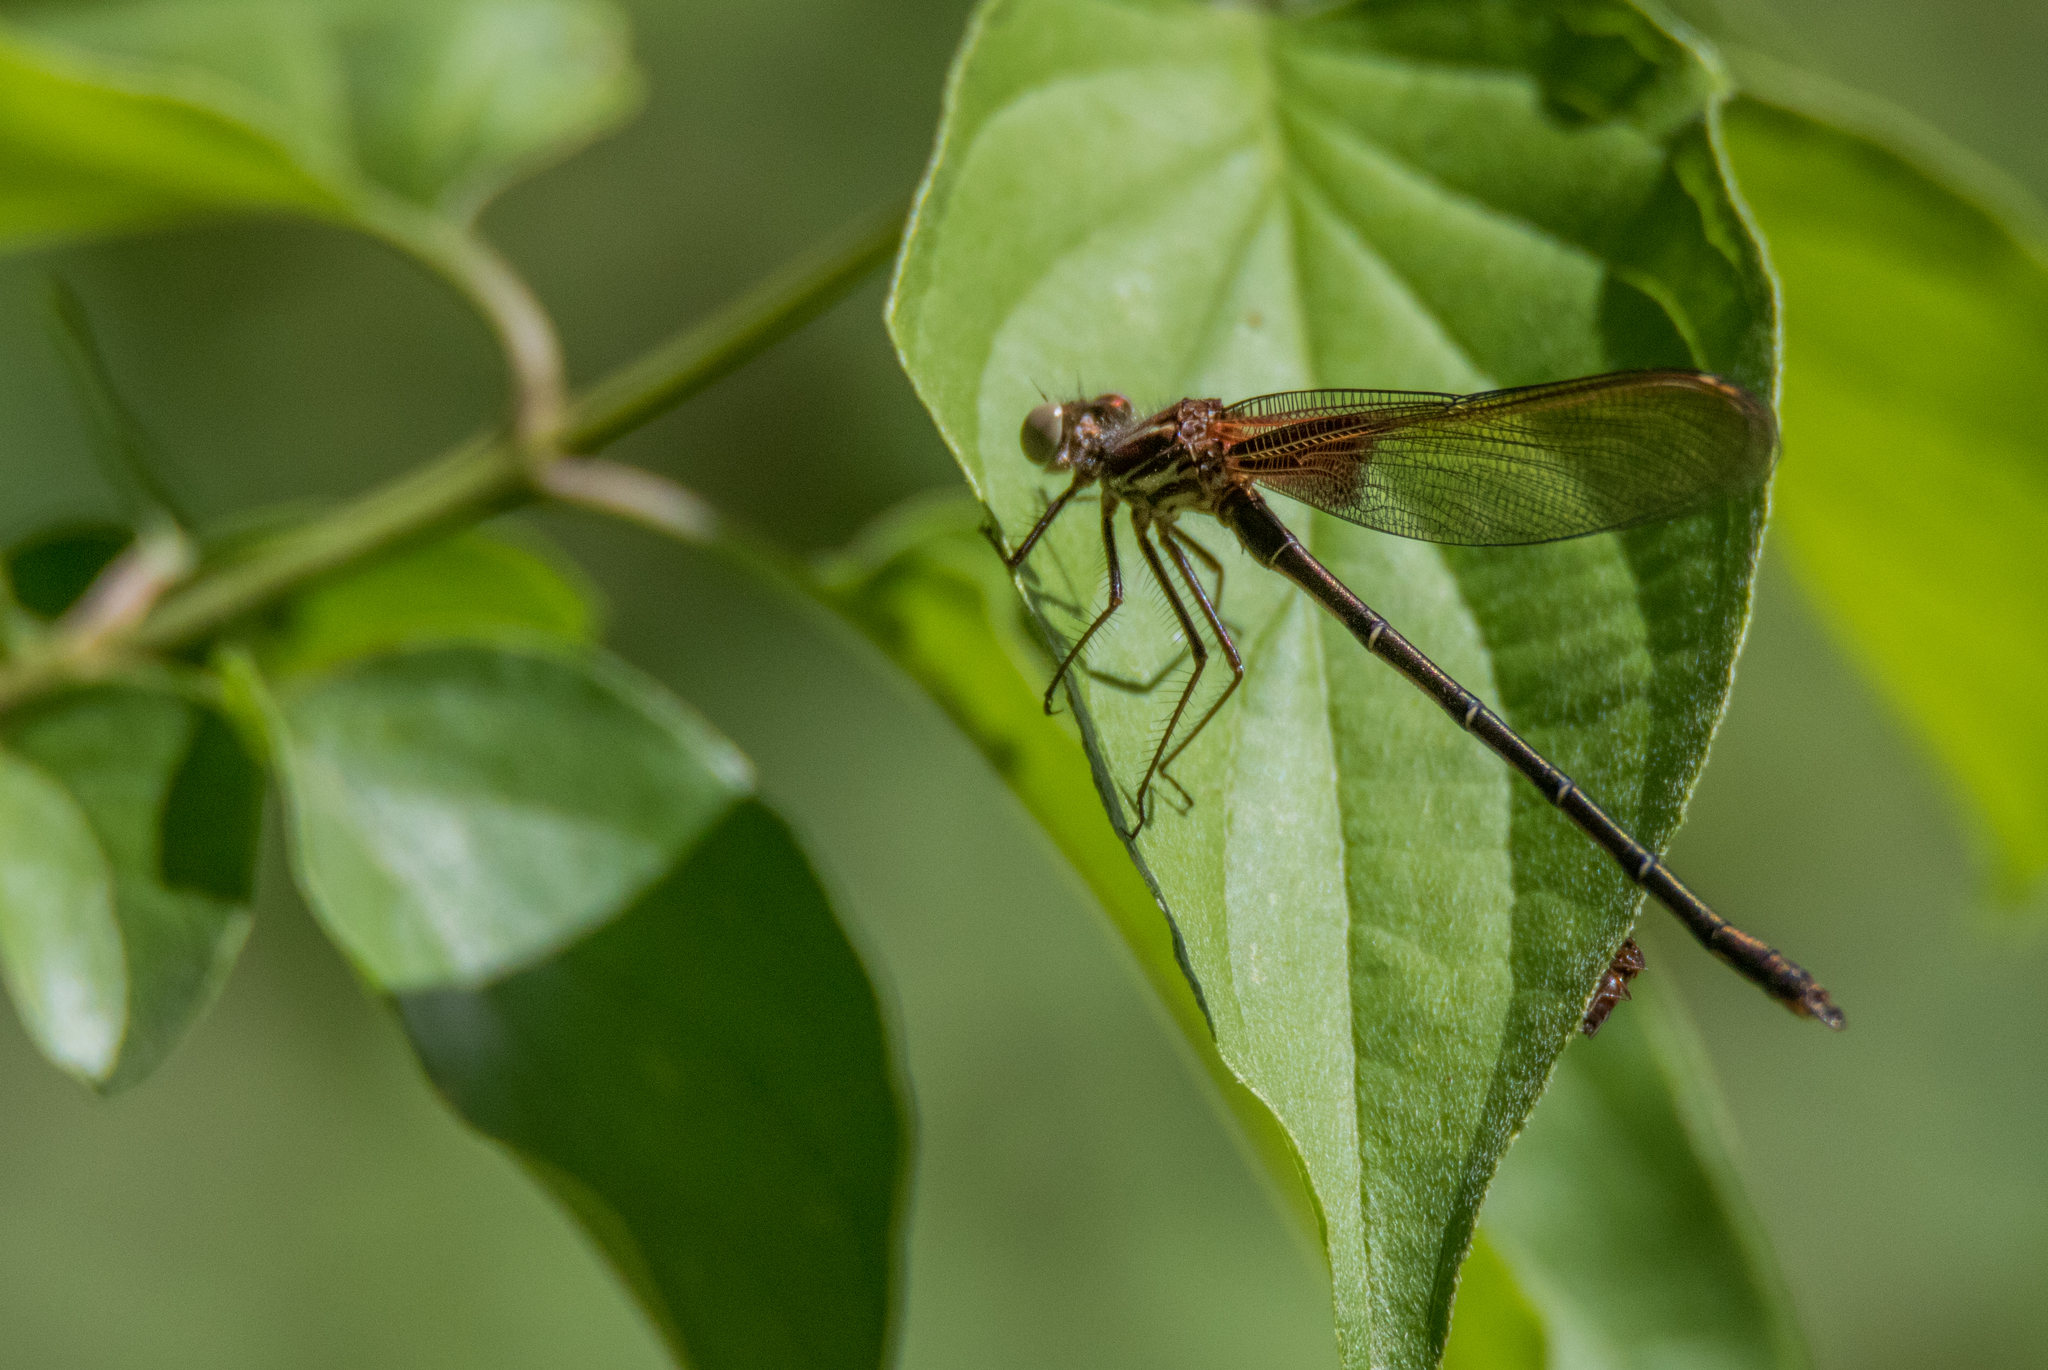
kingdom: Animalia
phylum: Arthropoda
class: Insecta
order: Odonata
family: Calopterygidae
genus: Hetaerina
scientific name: Hetaerina americana
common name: American rubyspot
